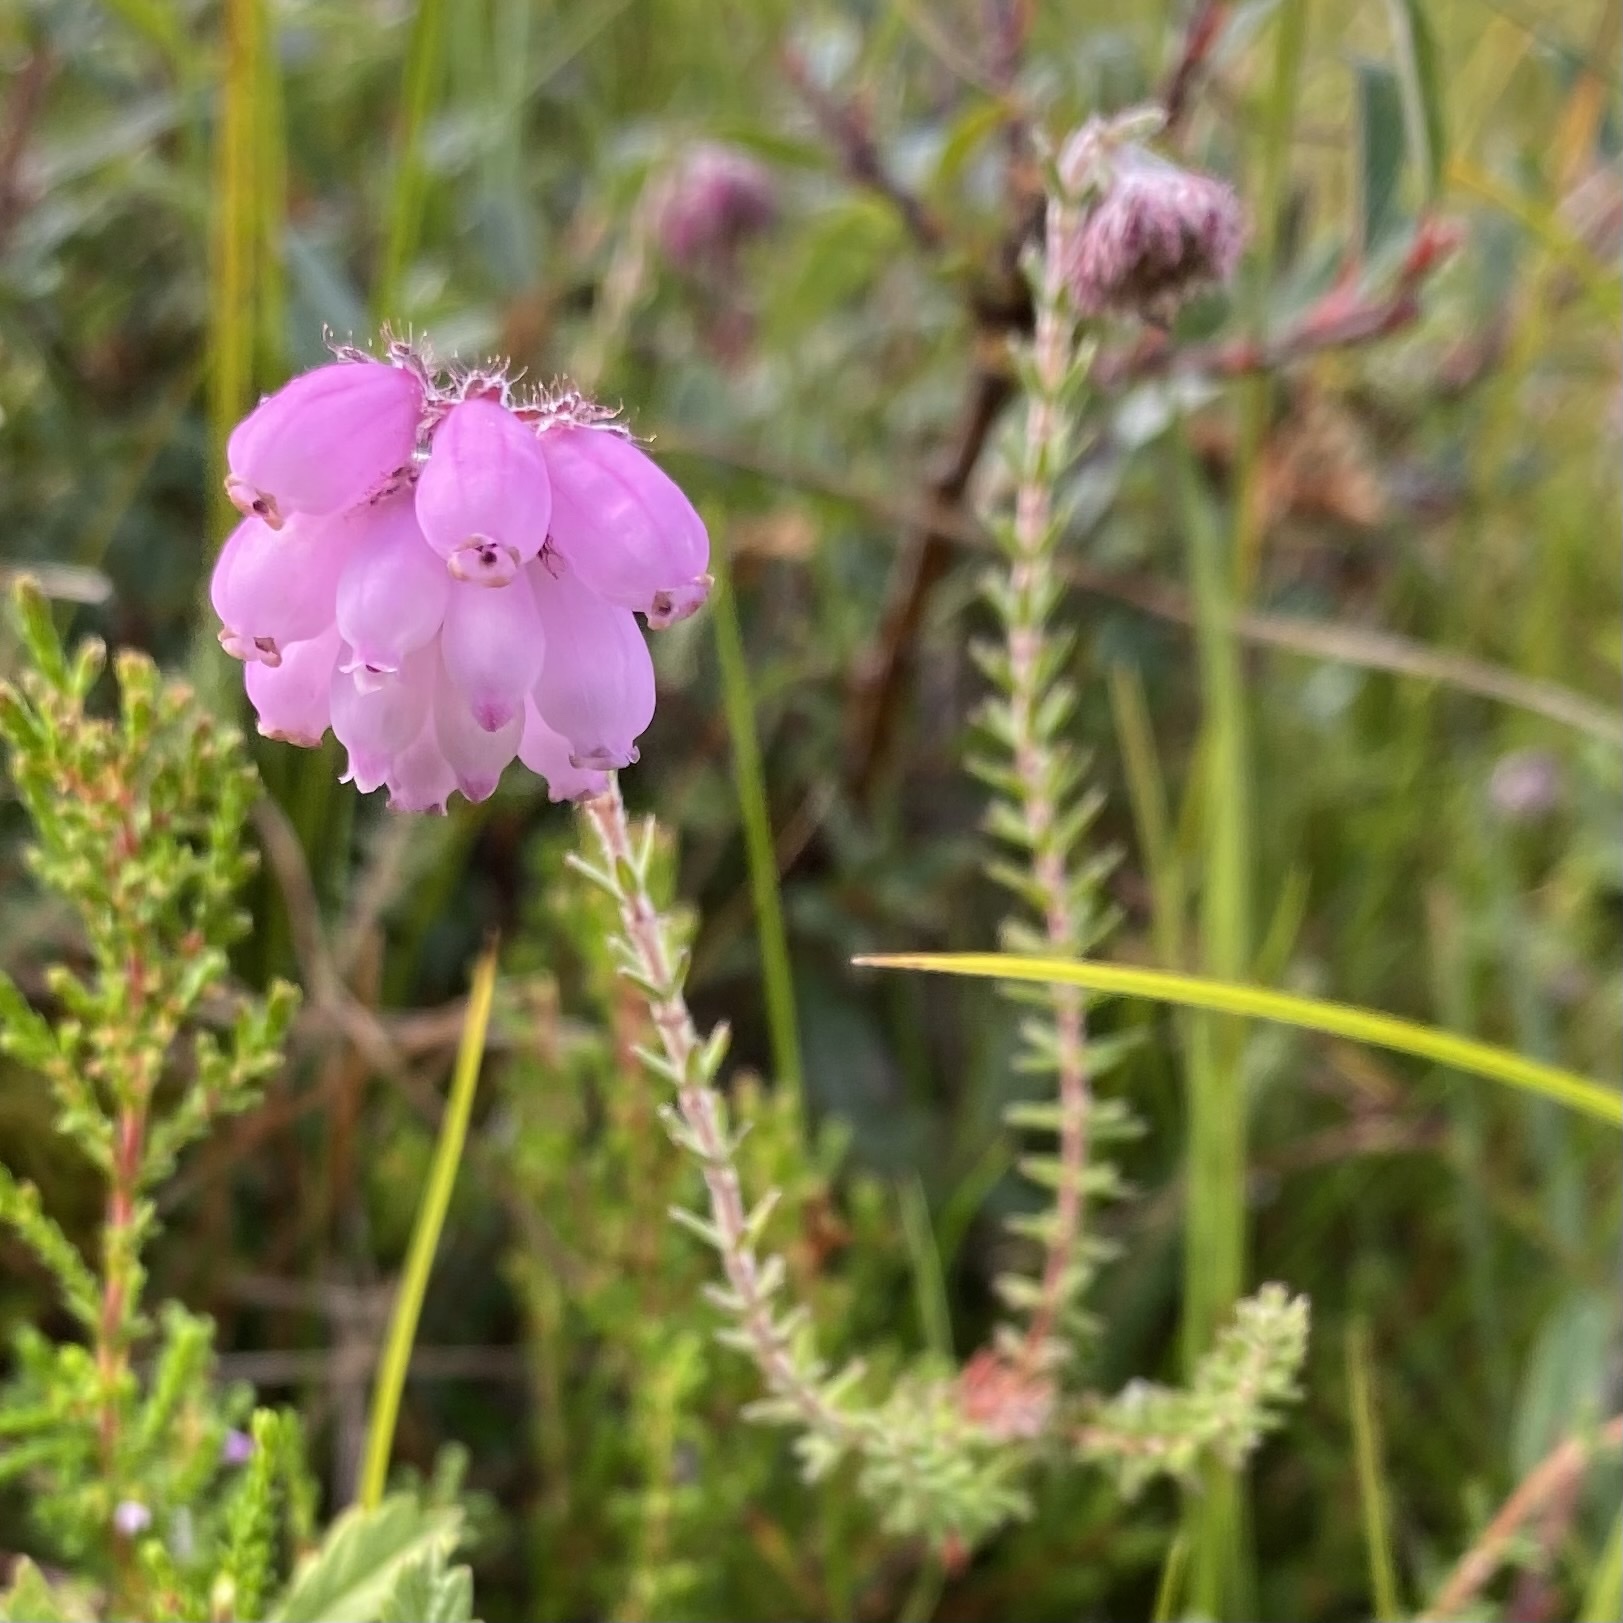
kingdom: Plantae
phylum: Tracheophyta
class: Magnoliopsida
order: Ericales
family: Ericaceae
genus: Erica
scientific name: Erica tetralix
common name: Cross-leaved heath
